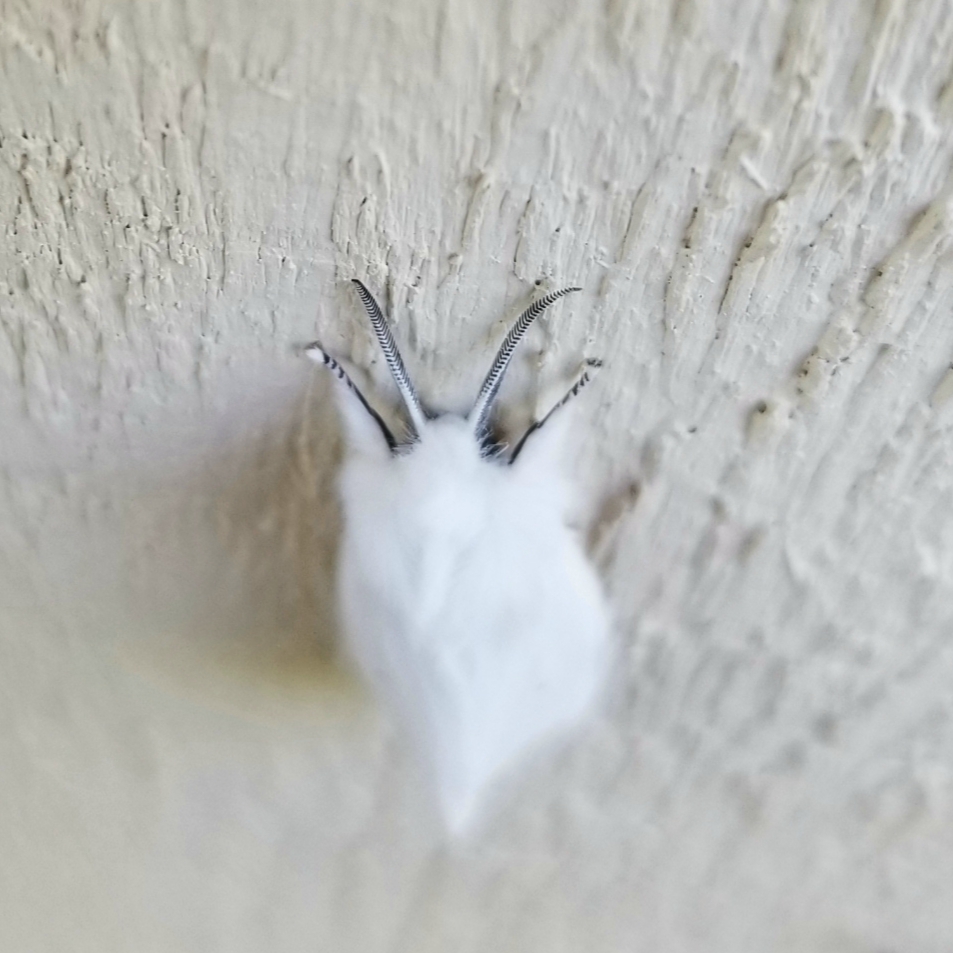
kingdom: Animalia
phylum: Arthropoda
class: Insecta
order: Lepidoptera
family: Erebidae
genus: Spilosoma
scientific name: Spilosoma virginica
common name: Virginia tiger moth
